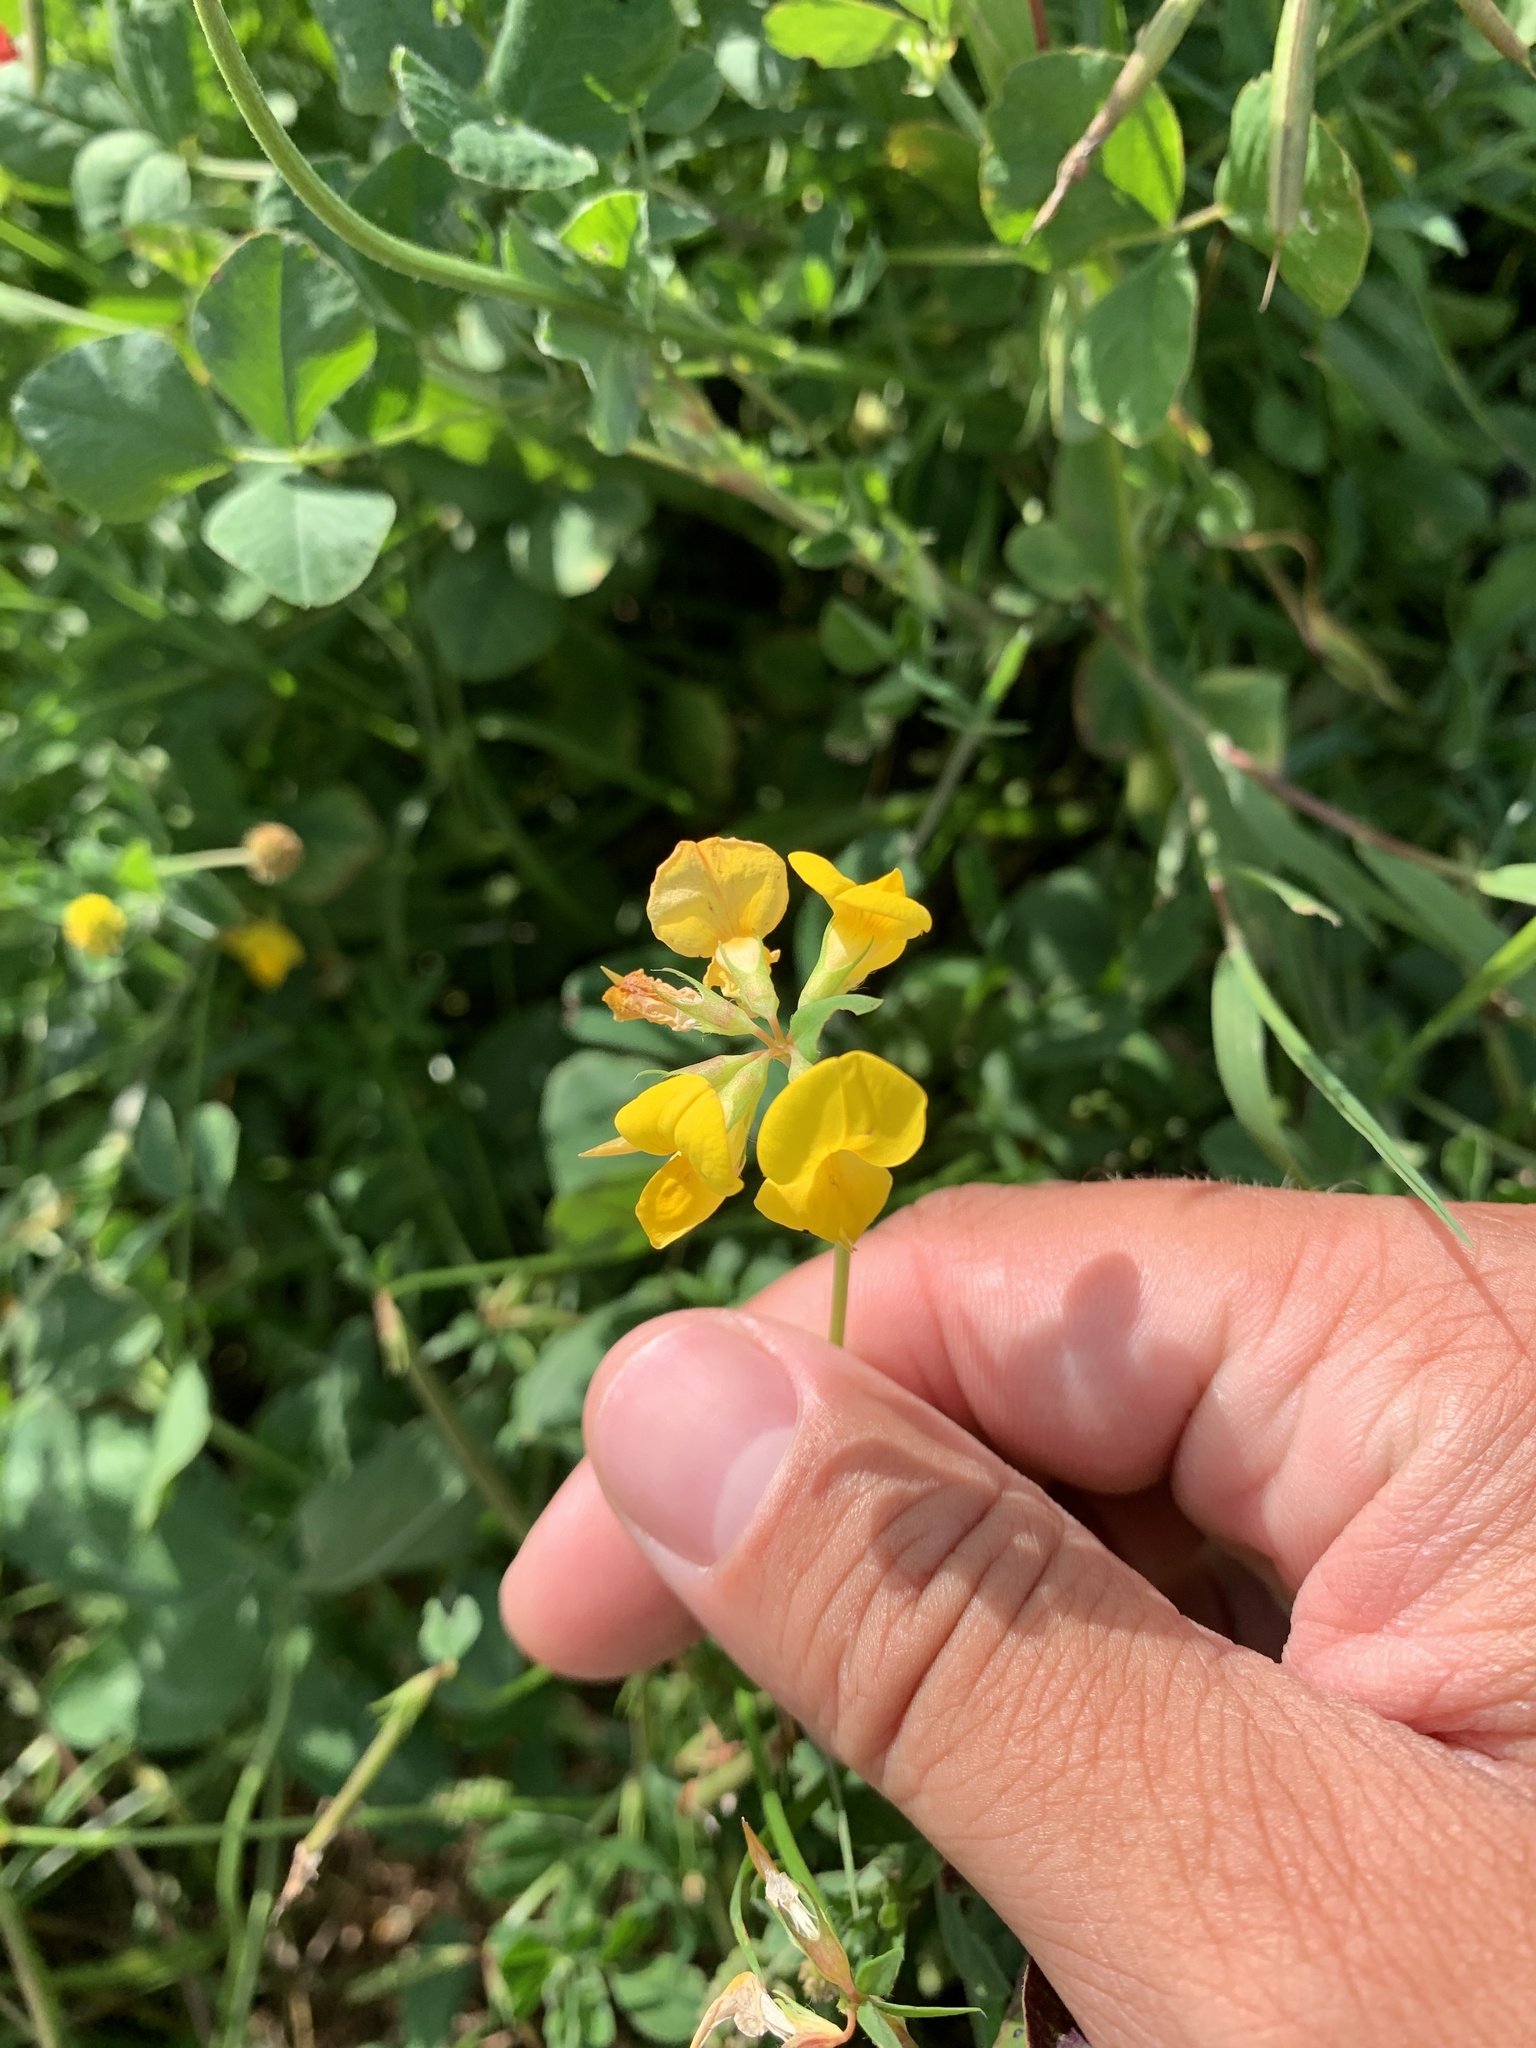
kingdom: Plantae
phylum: Tracheophyta
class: Magnoliopsida
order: Fabales
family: Fabaceae
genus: Lotus
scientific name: Lotus corniculatus
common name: Common bird's-foot-trefoil
